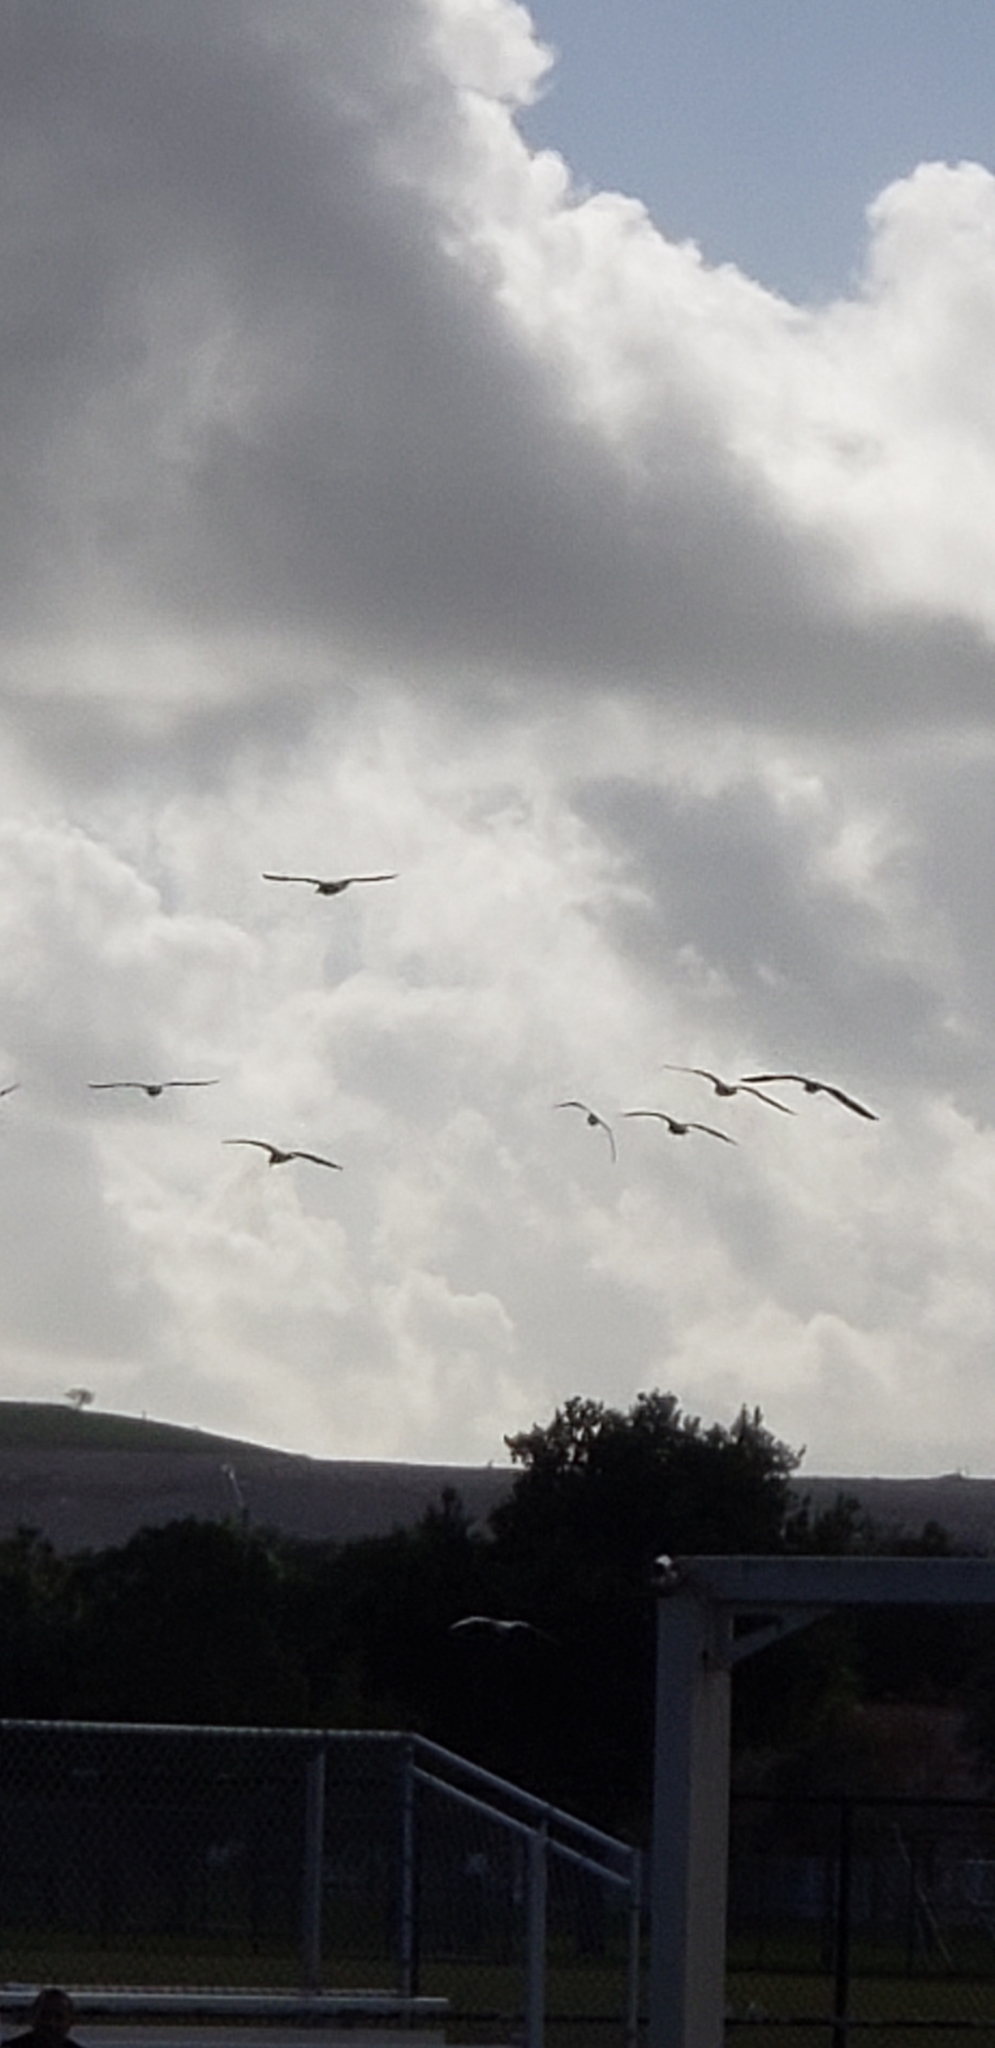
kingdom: Animalia
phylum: Chordata
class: Aves
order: Charadriiformes
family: Laridae
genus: Larus
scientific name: Larus delawarensis
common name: Ring-billed gull
